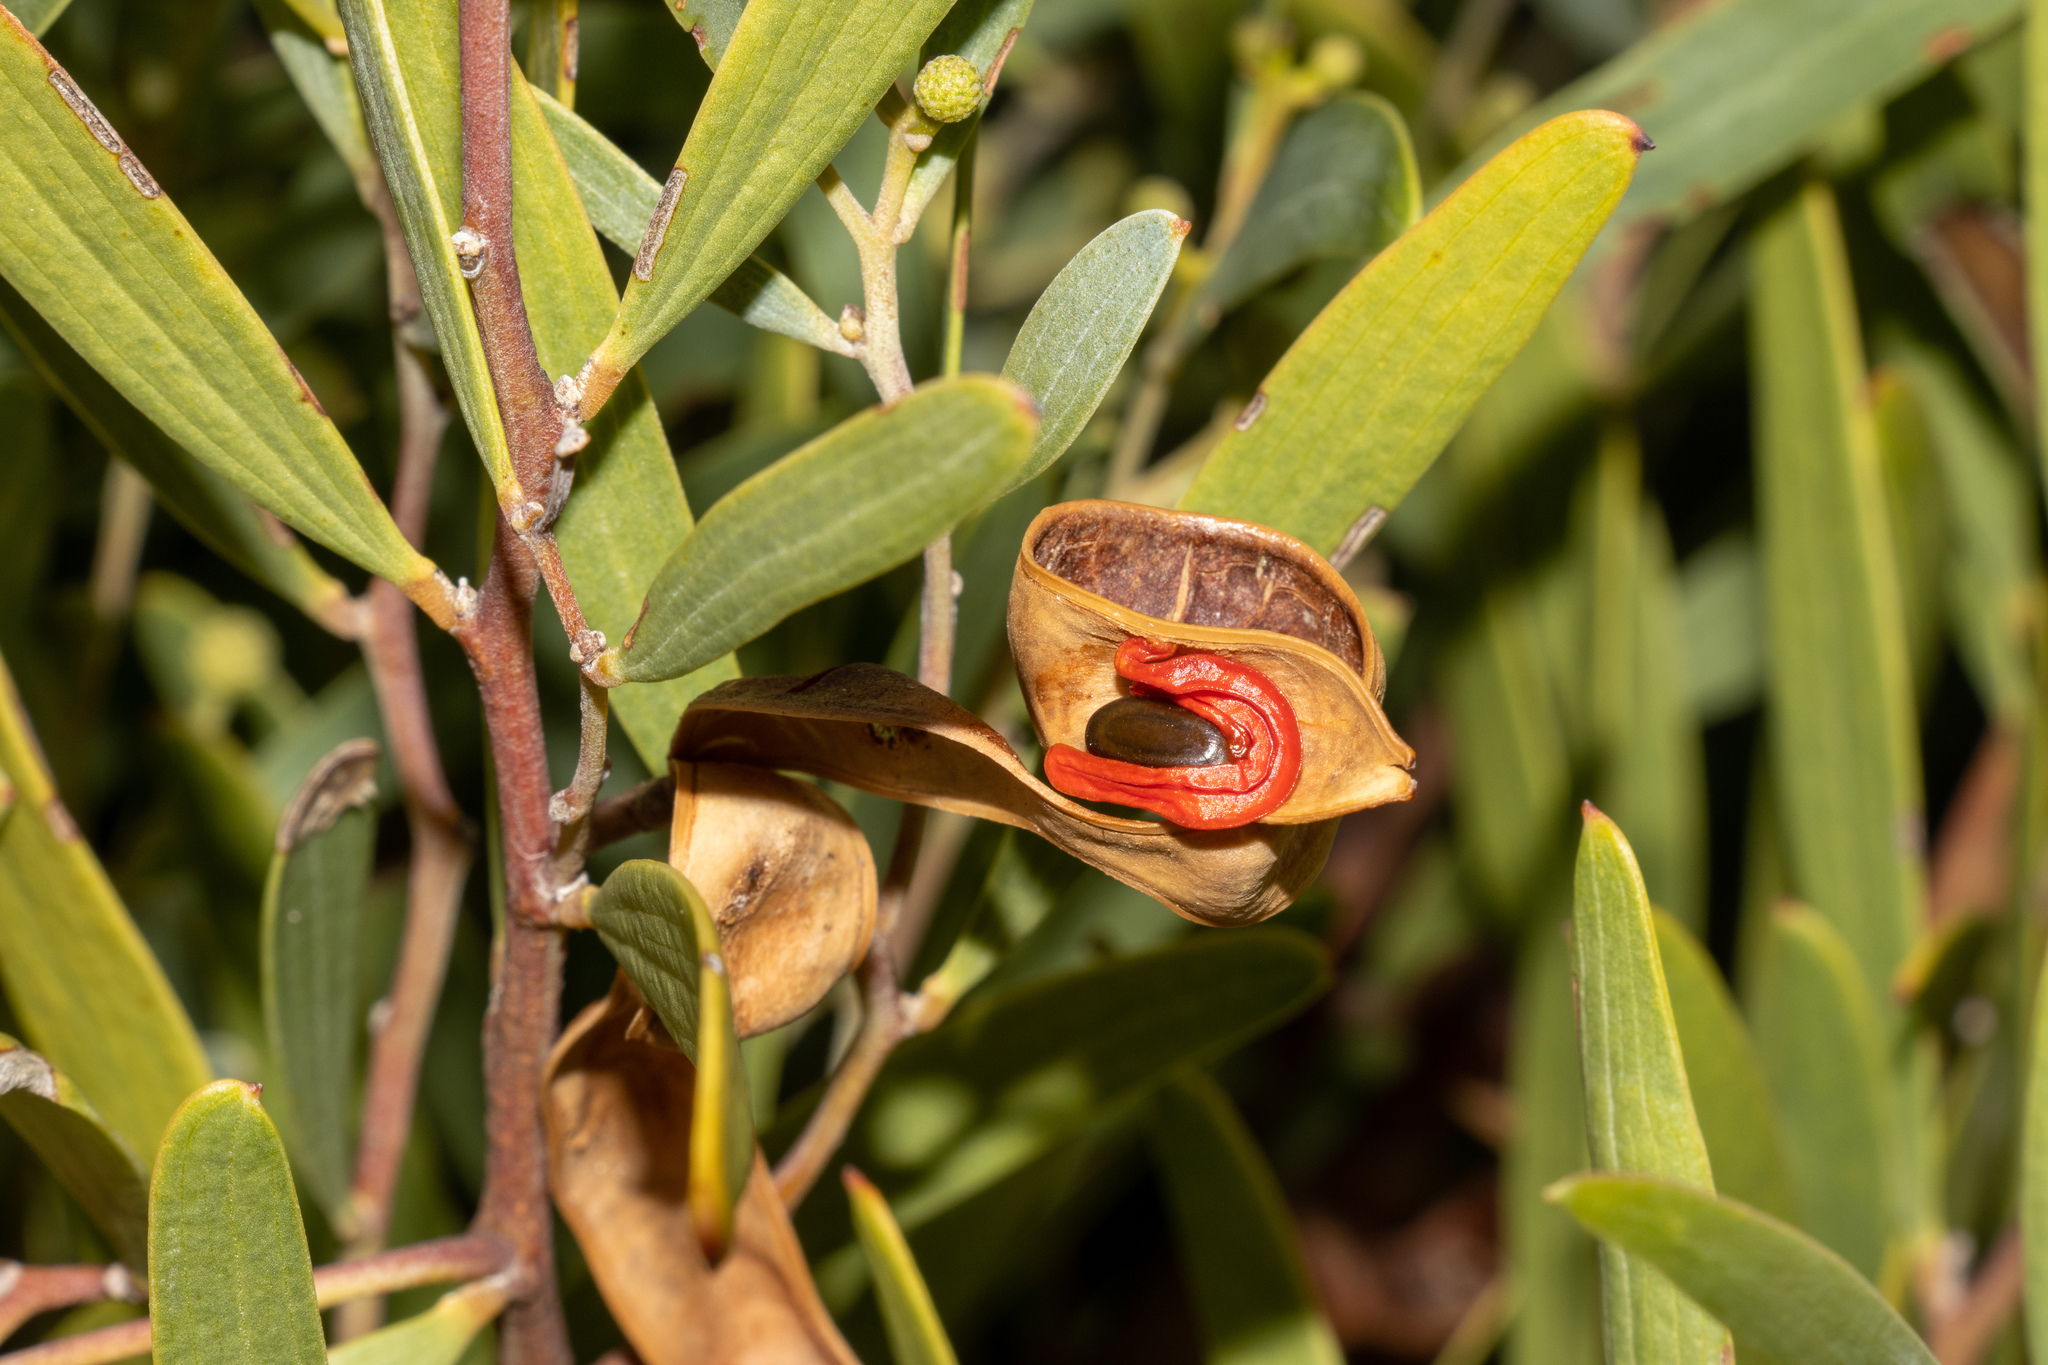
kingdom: Plantae
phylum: Tracheophyta
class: Magnoliopsida
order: Fabales
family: Fabaceae
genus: Acacia
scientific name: Acacia cyclops
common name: Coastal wattle
